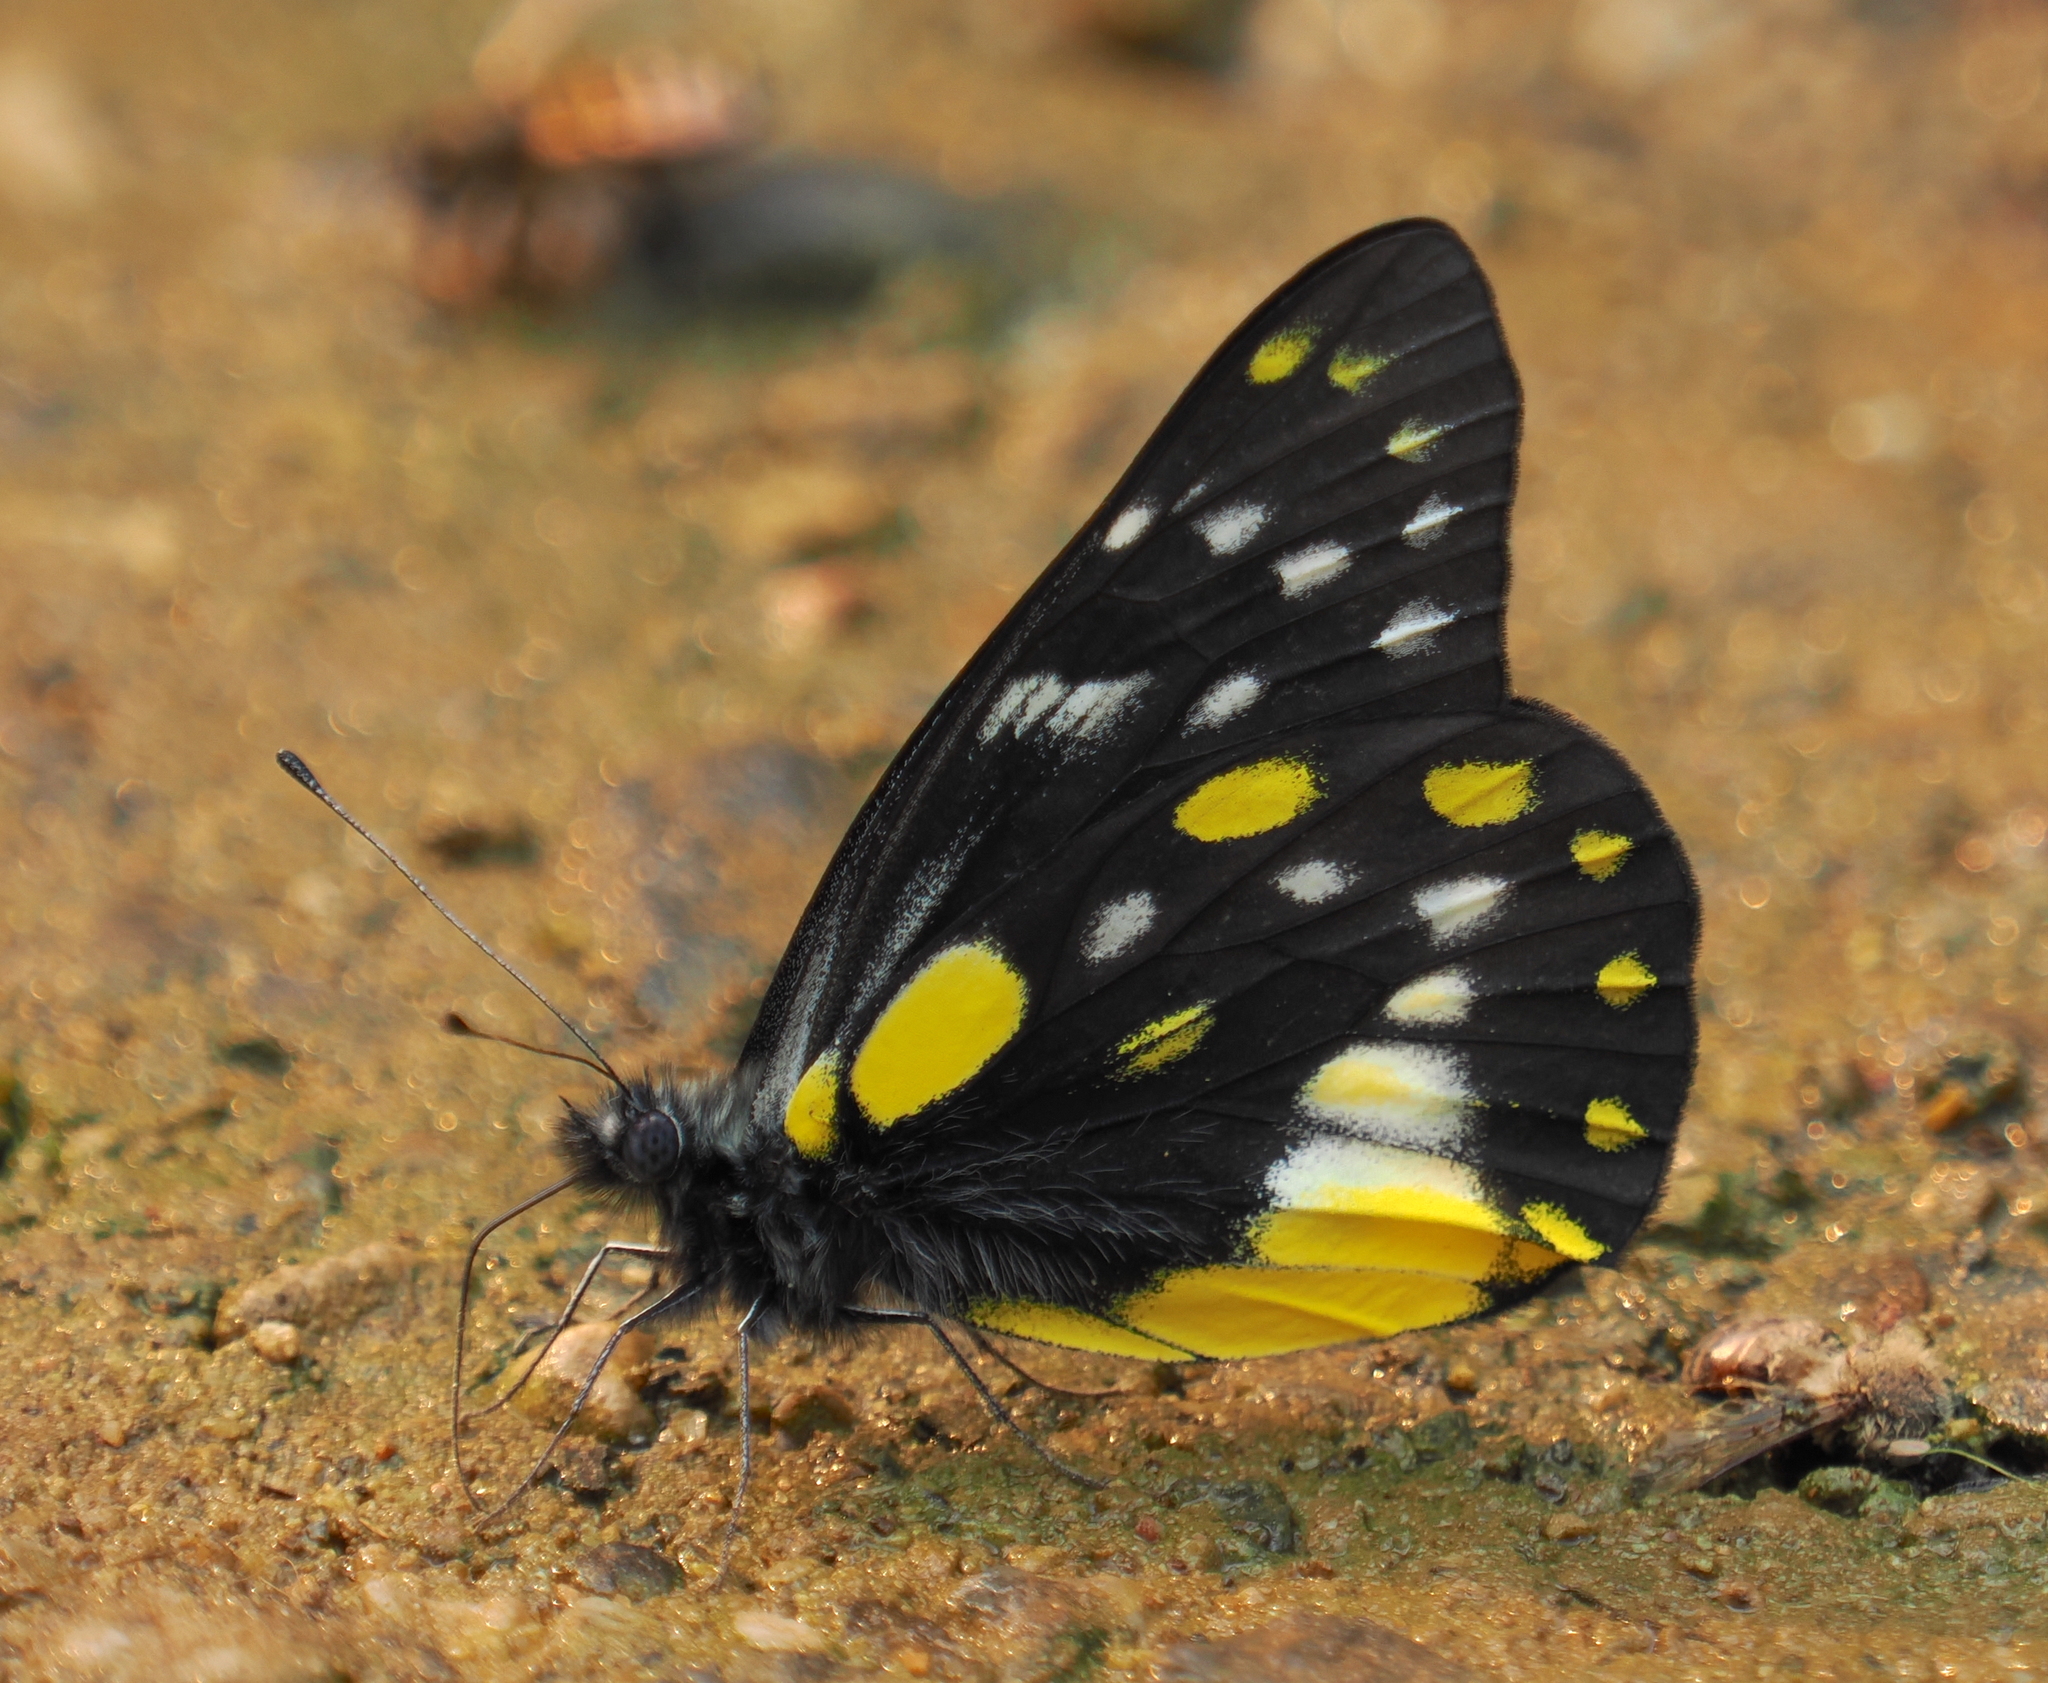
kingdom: Animalia
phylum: Arthropoda
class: Insecta
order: Lepidoptera
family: Pieridae
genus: Delias
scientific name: Delias belladonna
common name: Hill jezebel
